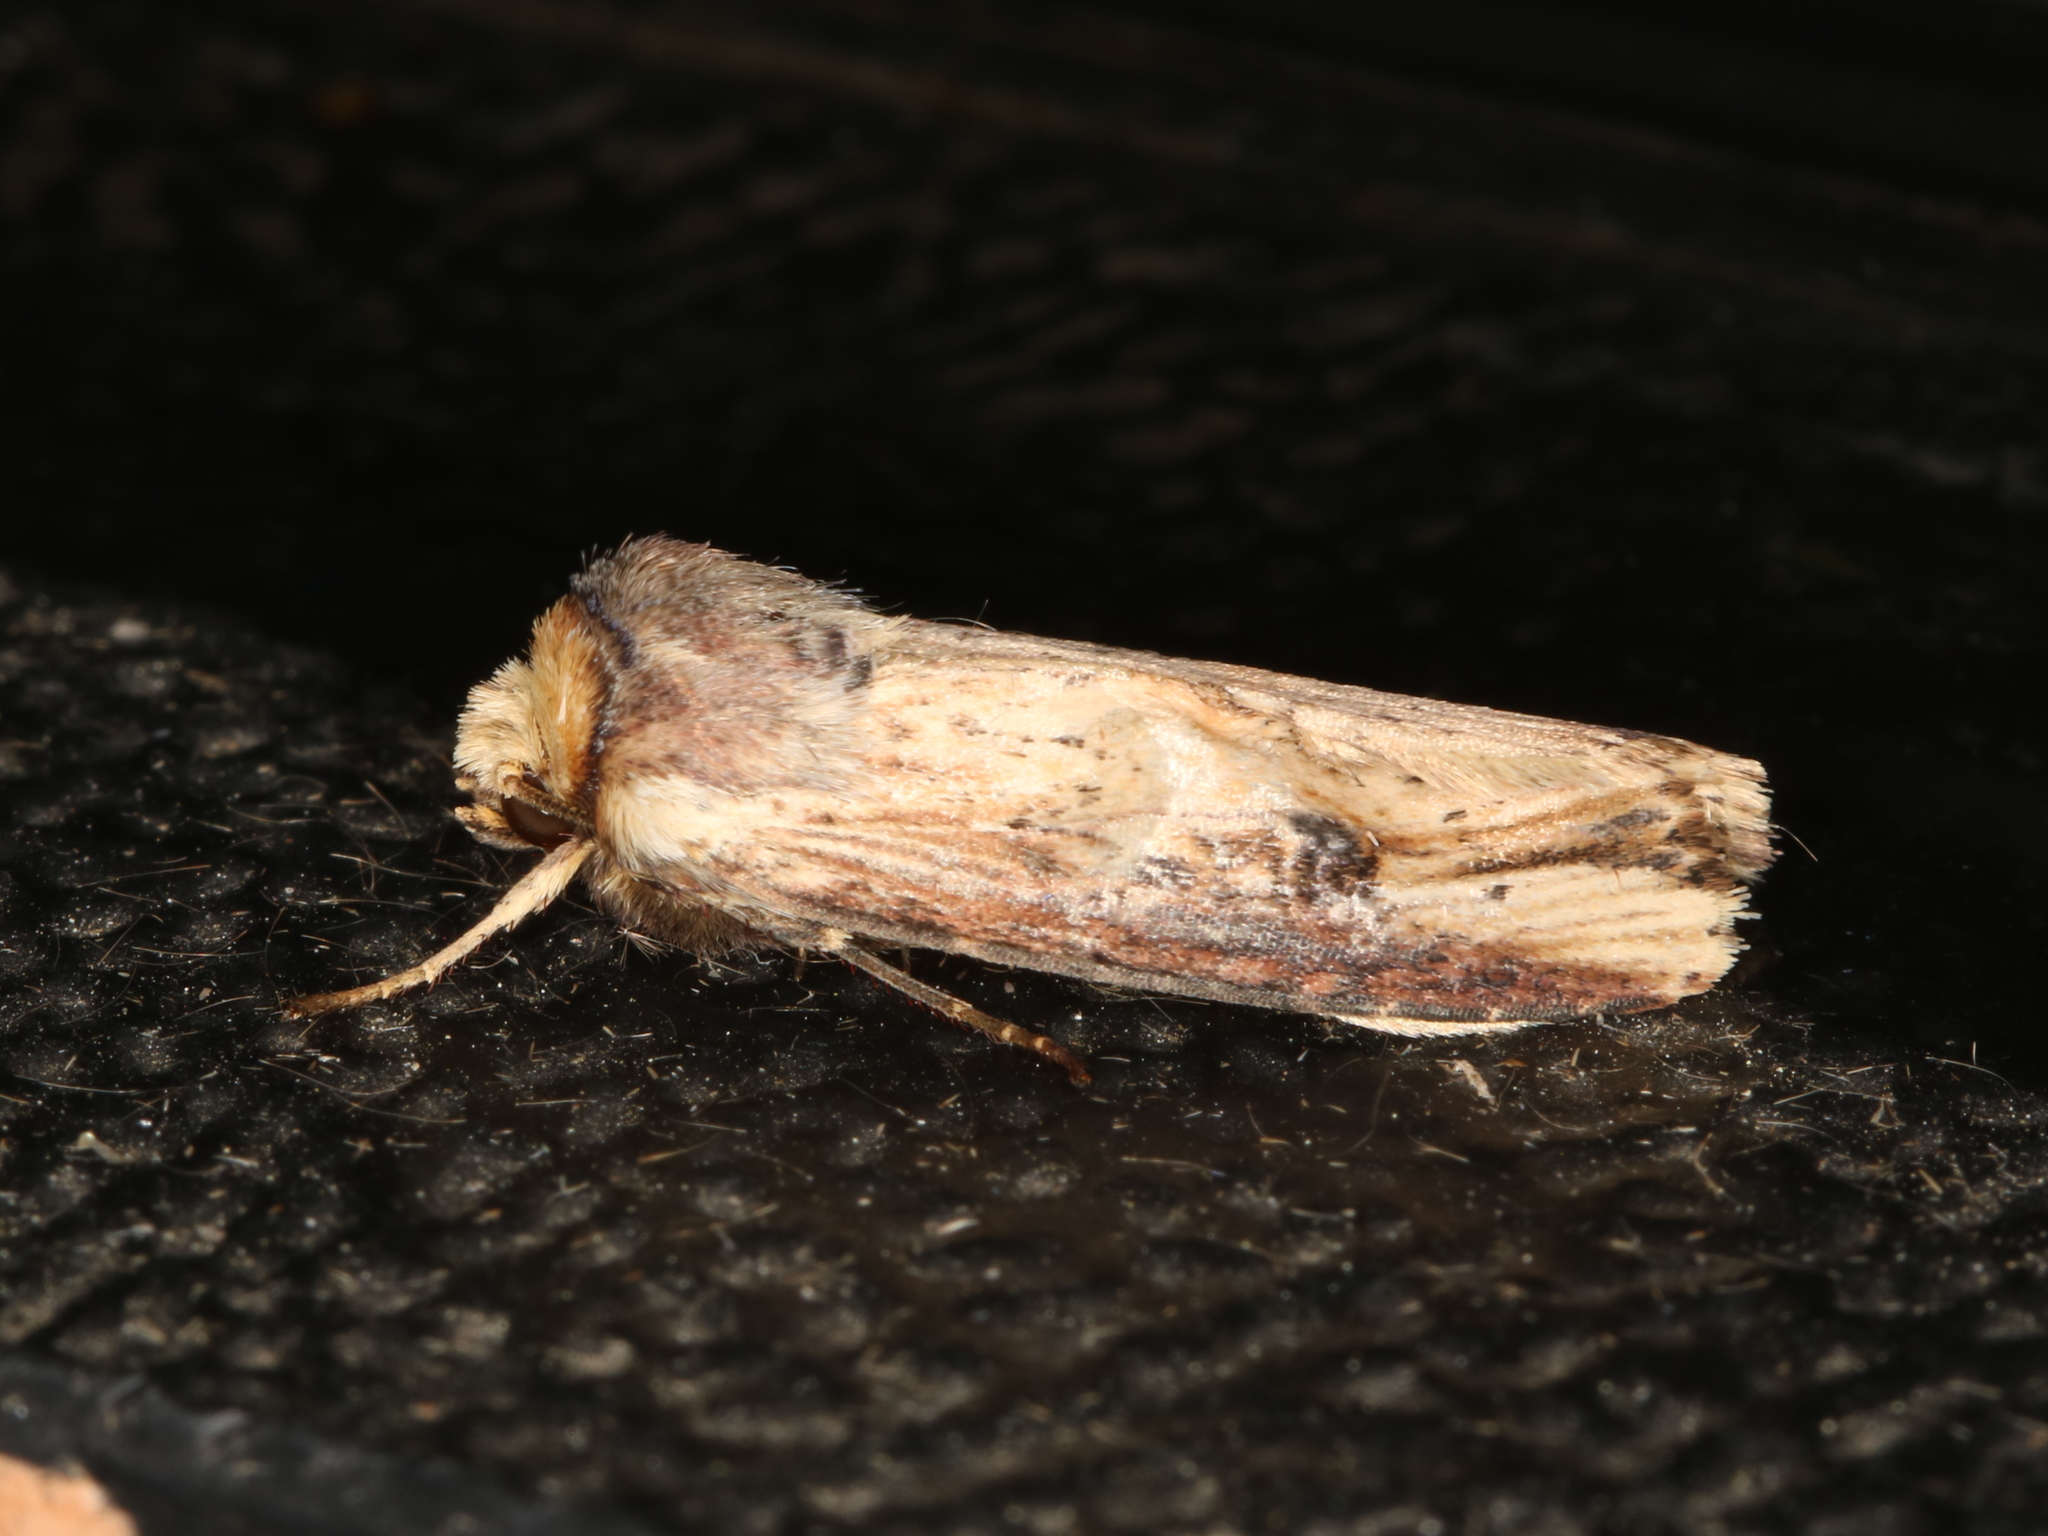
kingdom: Animalia
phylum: Arthropoda
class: Insecta
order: Lepidoptera
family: Noctuidae
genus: Axylia
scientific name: Axylia putris
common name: Flame
